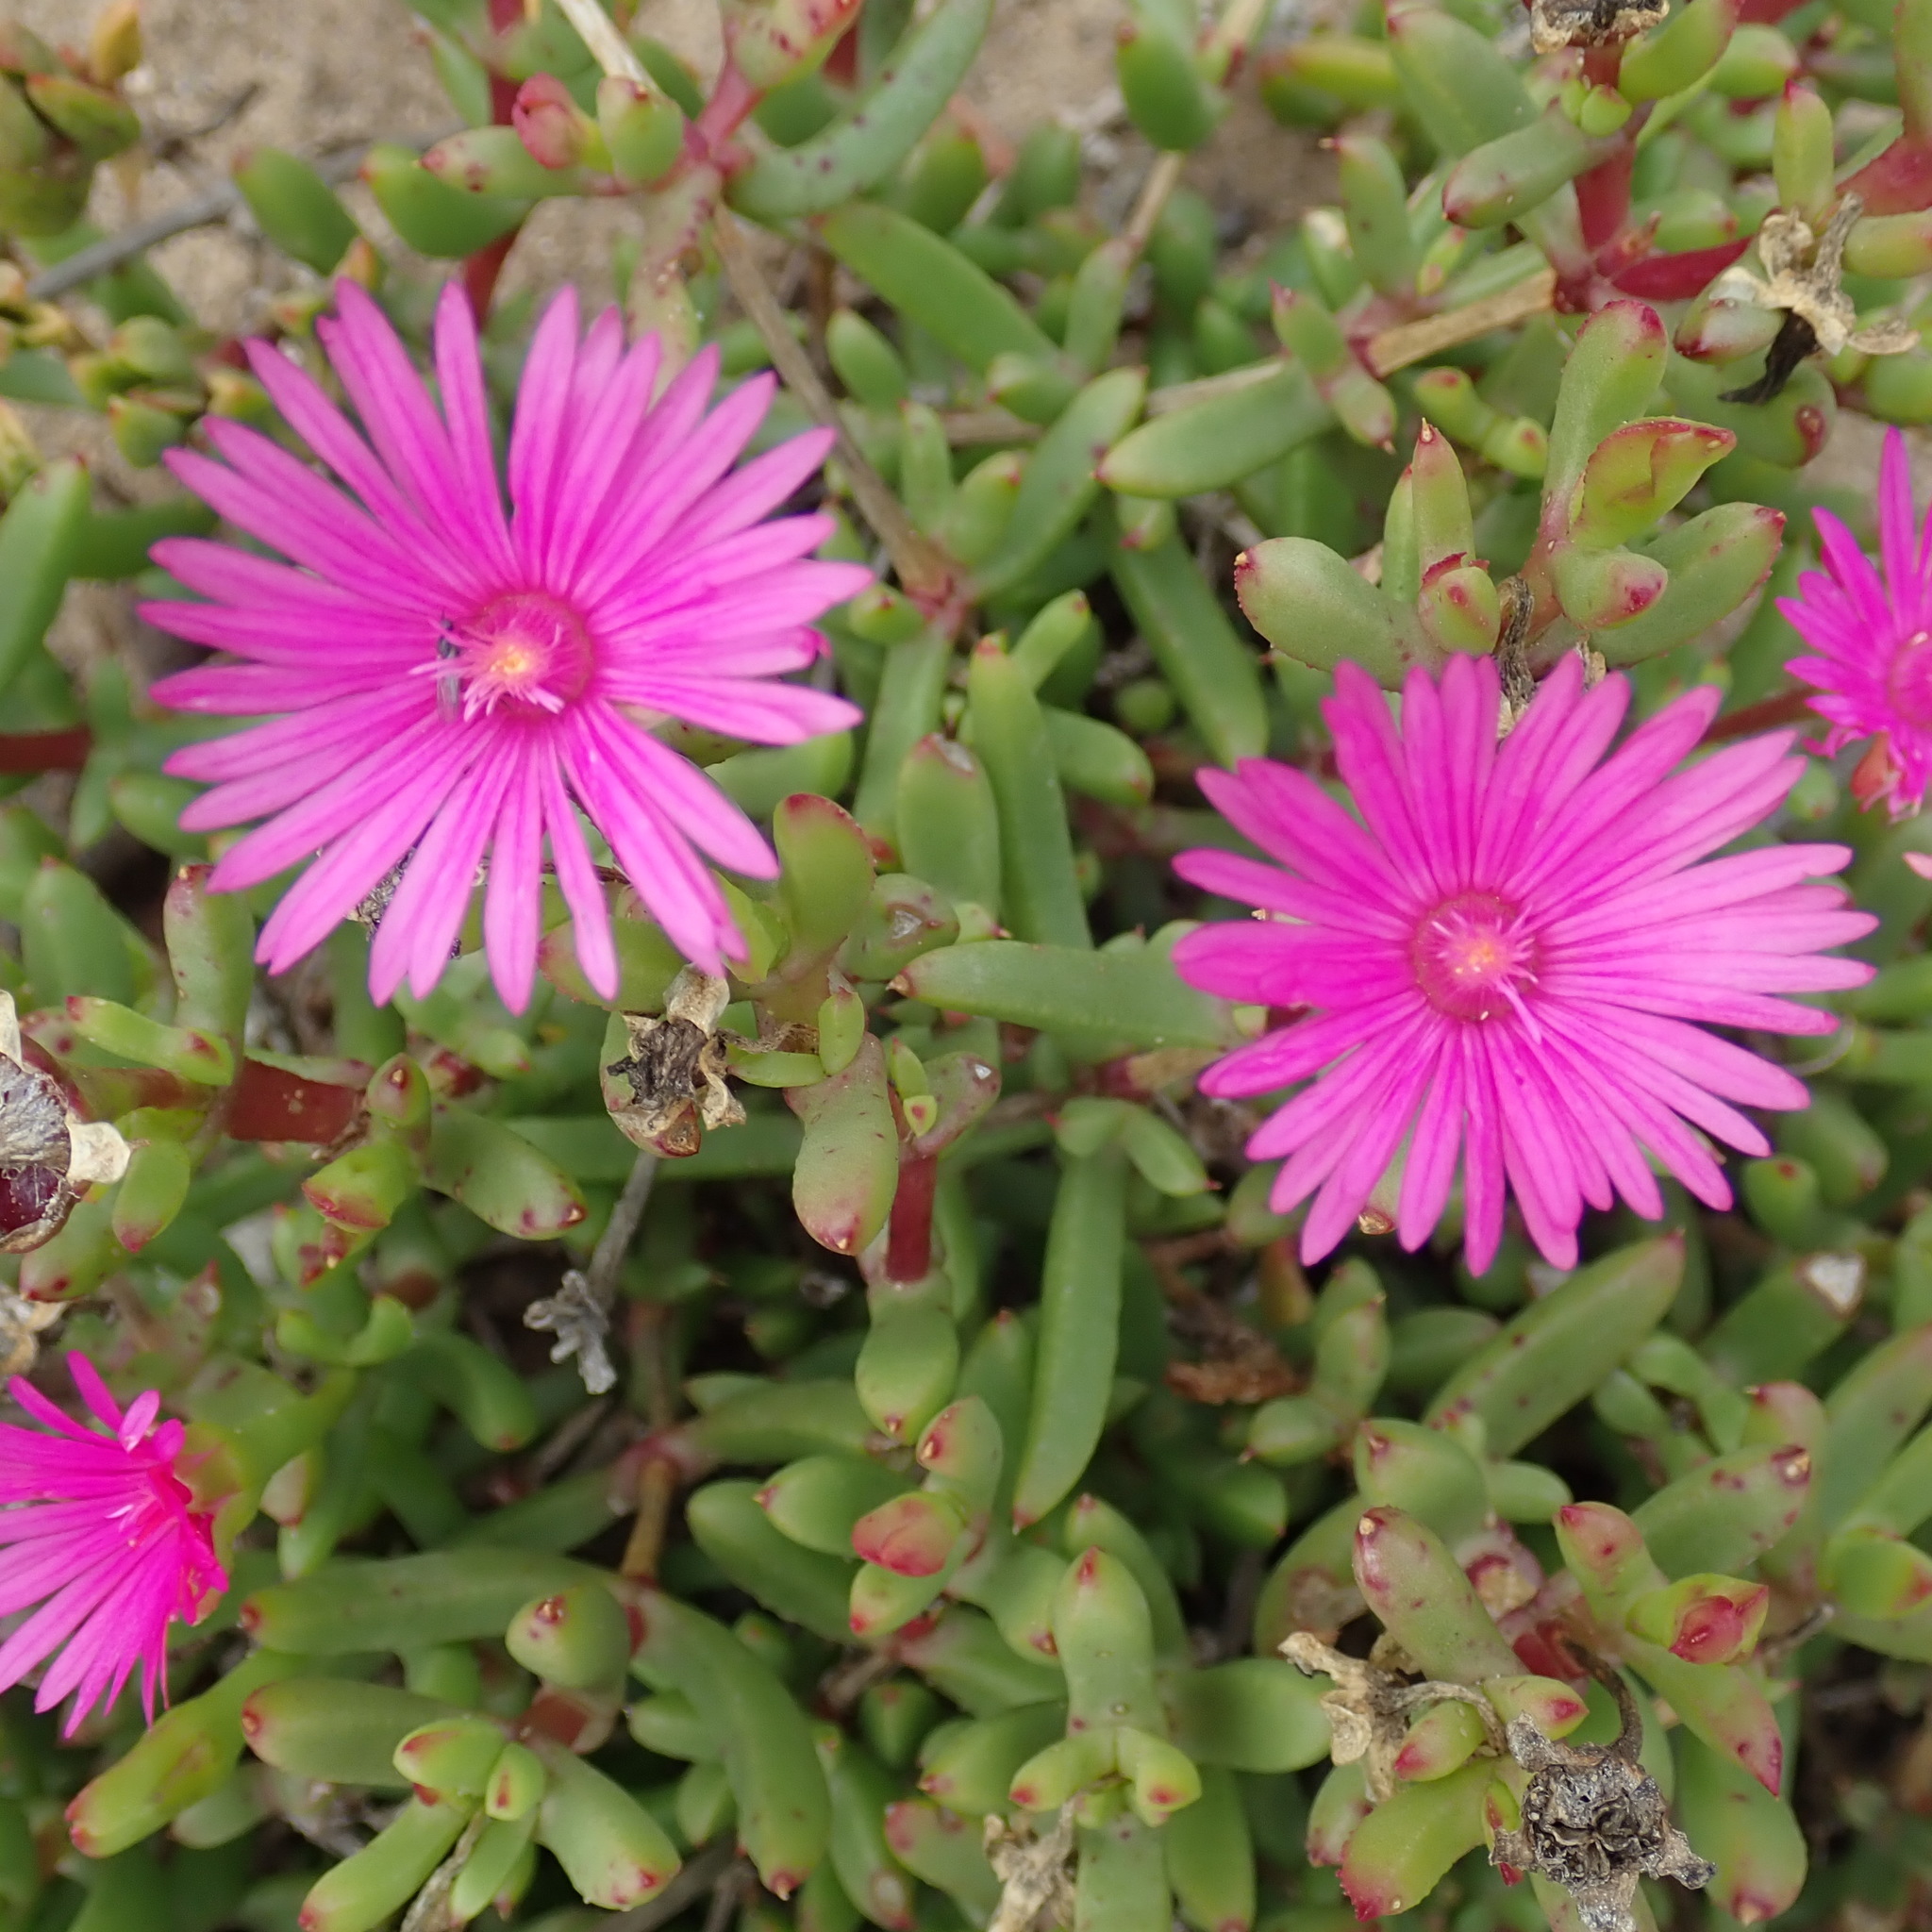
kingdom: Plantae
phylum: Tracheophyta
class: Magnoliopsida
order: Caryophyllales
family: Aizoaceae
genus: Lampranthus
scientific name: Lampranthus pauciflorus
